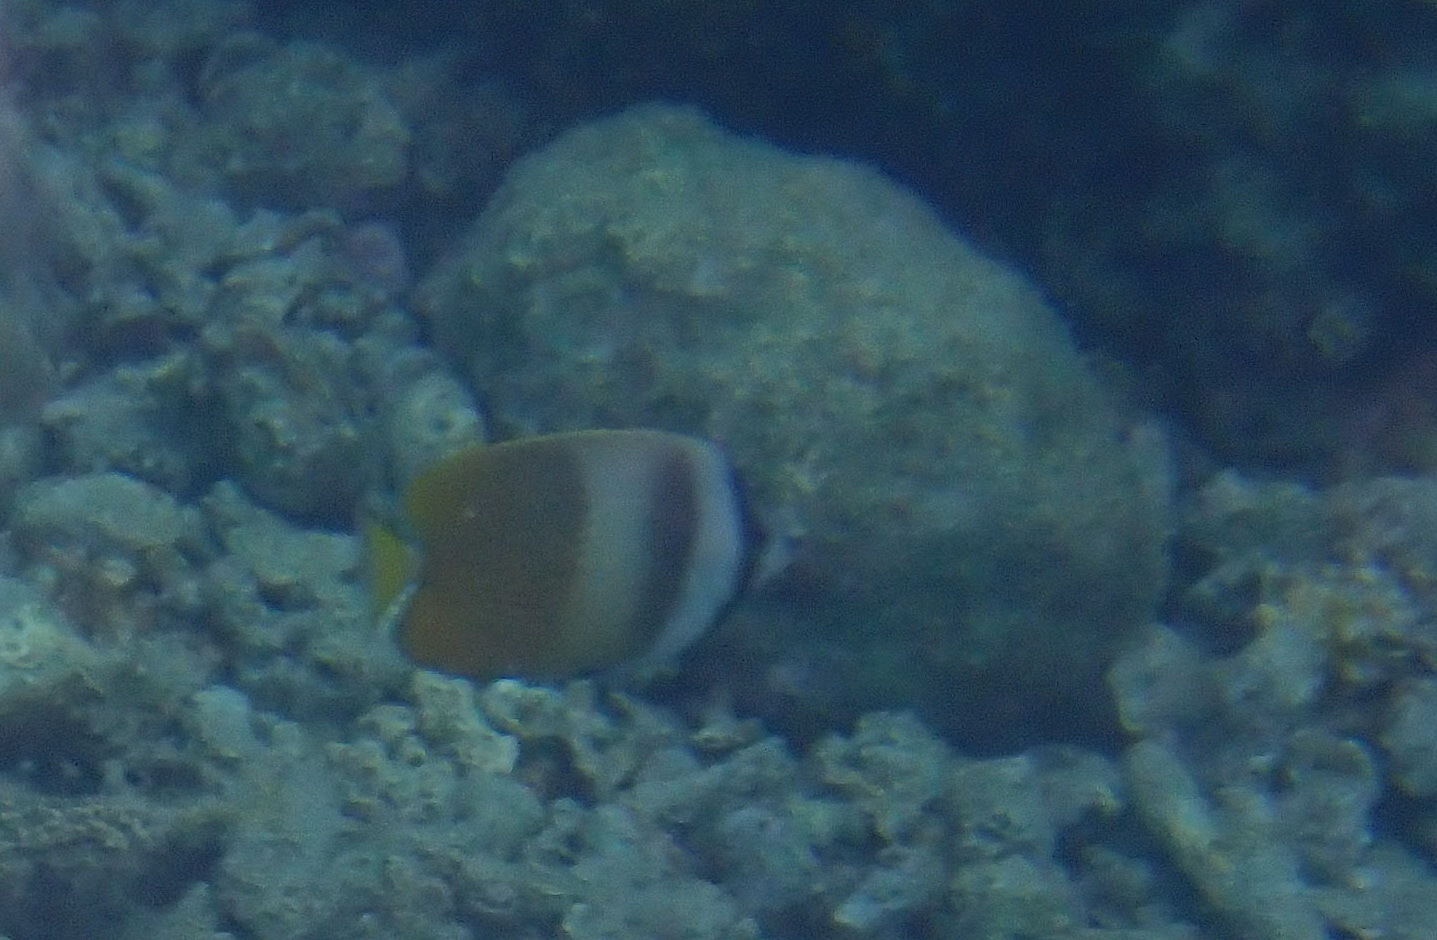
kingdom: Animalia
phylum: Chordata
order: Perciformes
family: Chaetodontidae
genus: Chaetodon
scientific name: Chaetodon kleinii
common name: Klein's butterflyfish
